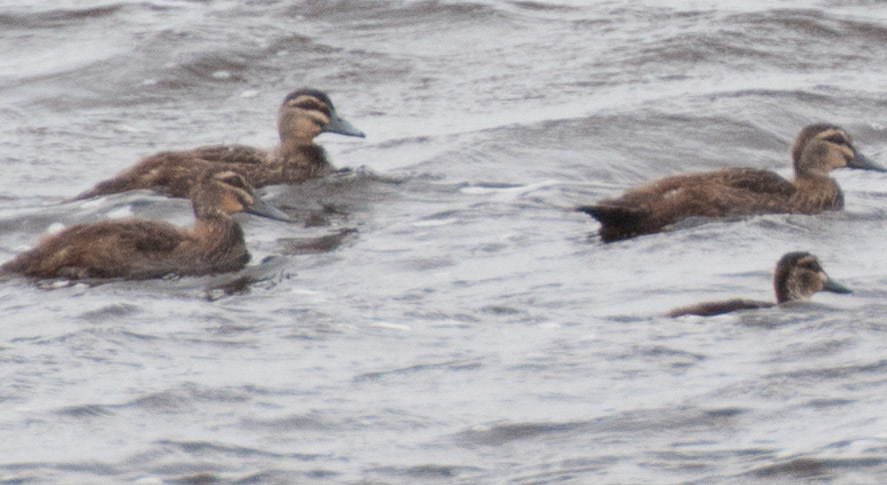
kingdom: Animalia
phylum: Chordata
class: Aves
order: Anseriformes
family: Anatidae
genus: Anas
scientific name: Anas superciliosa
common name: Pacific black duck
